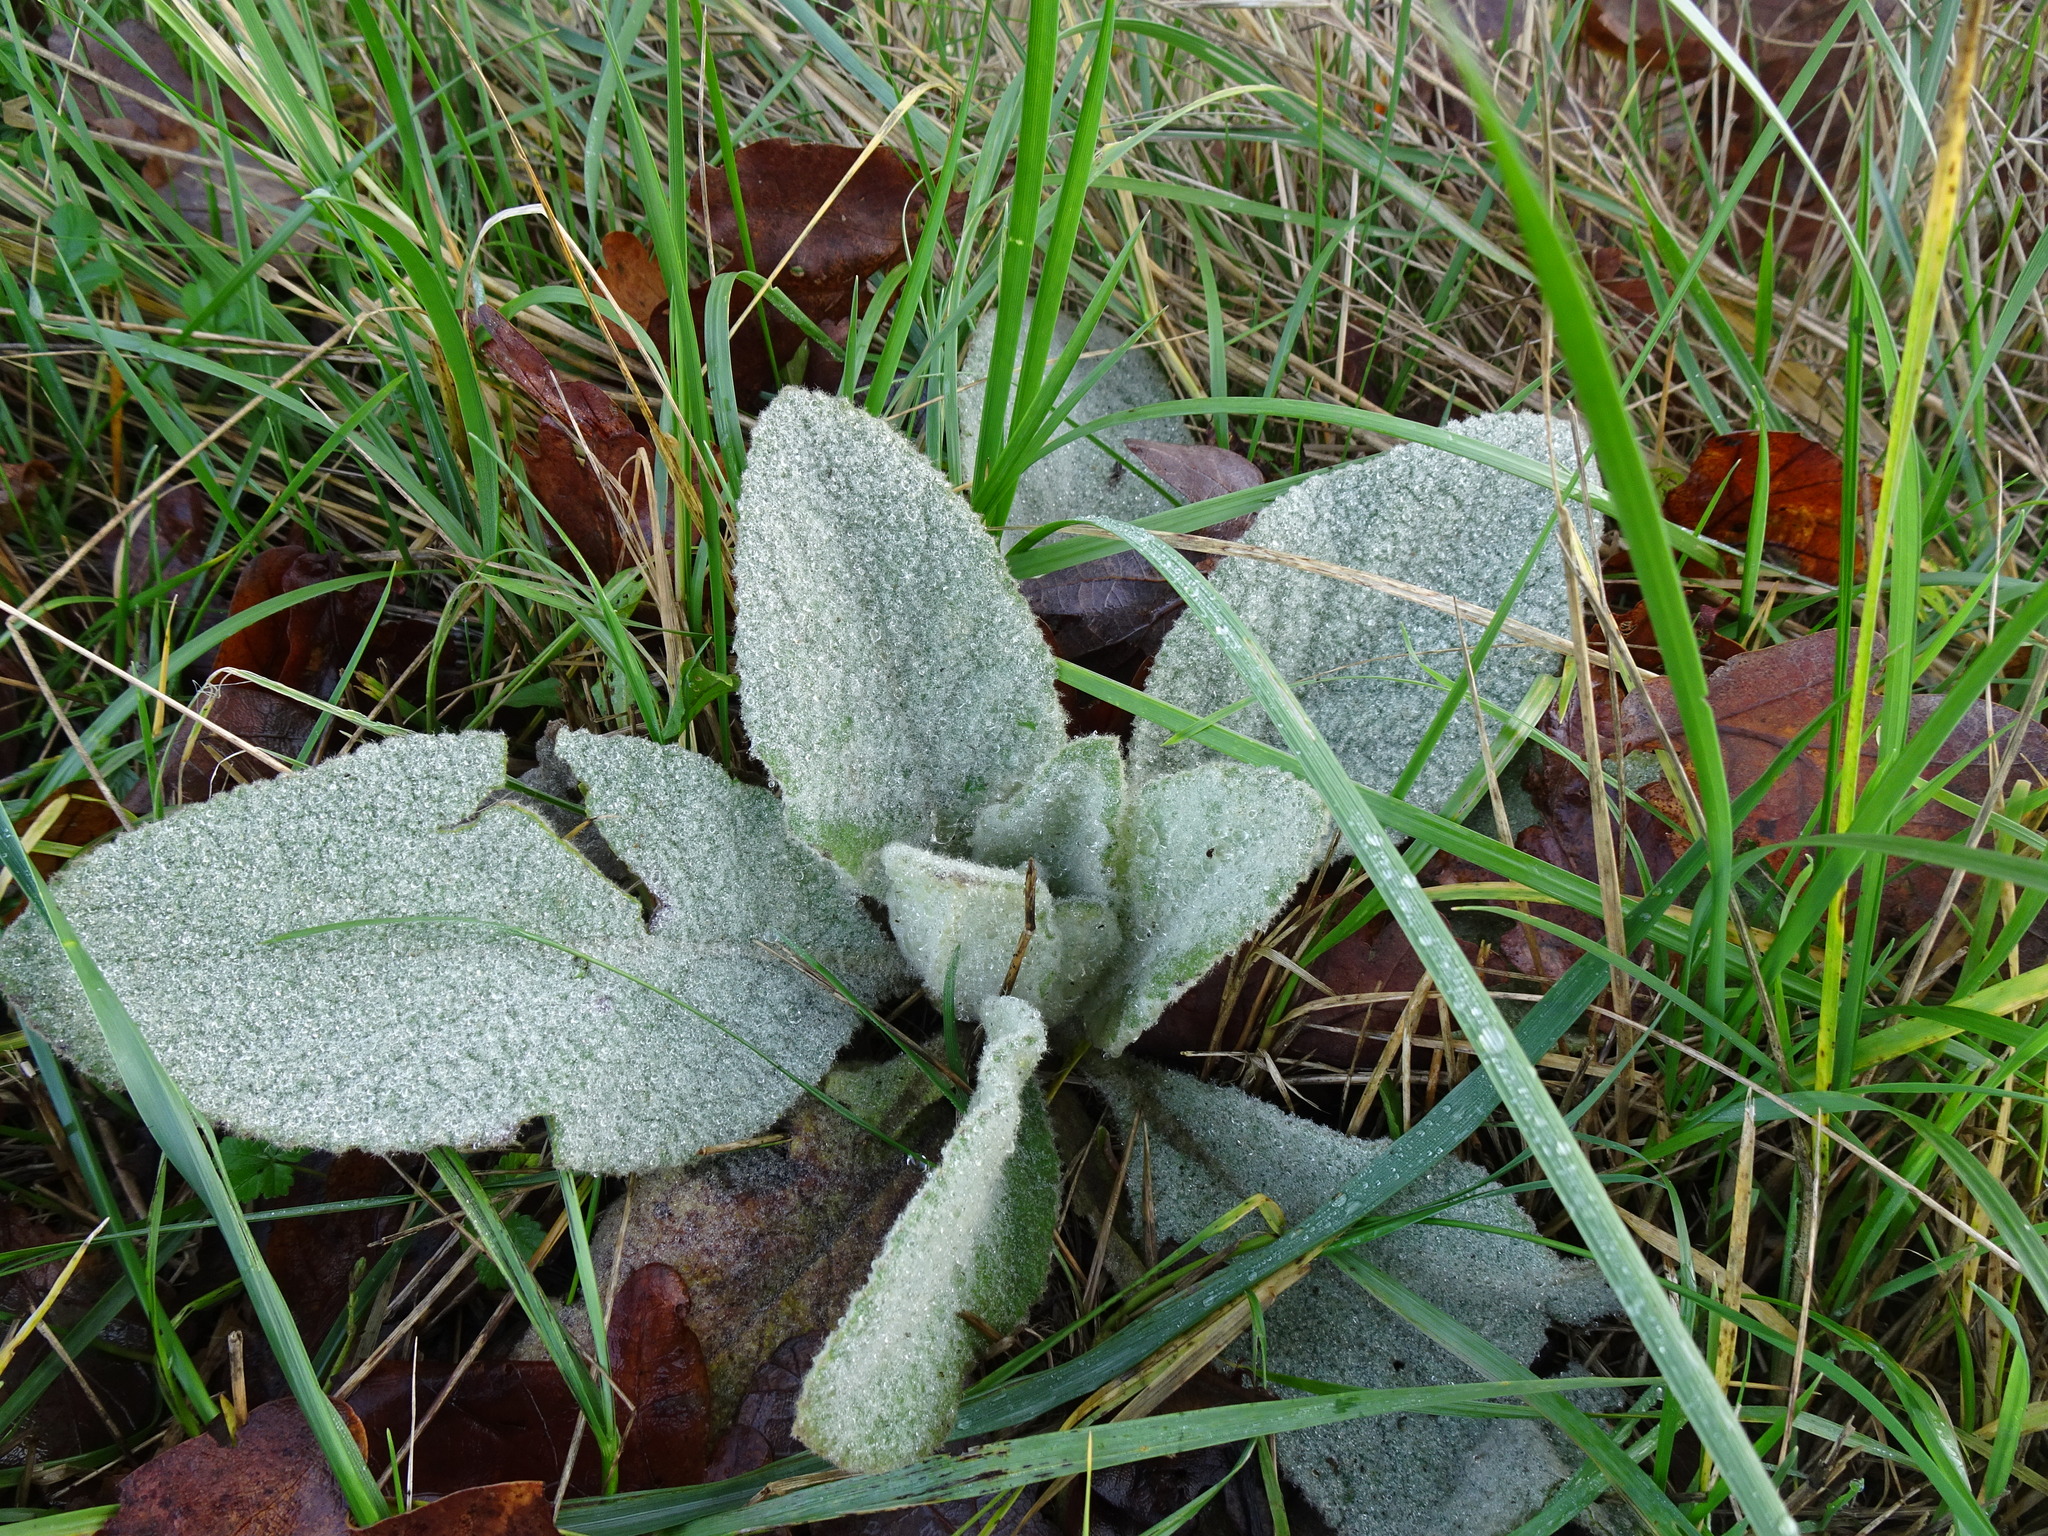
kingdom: Plantae
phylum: Tracheophyta
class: Magnoliopsida
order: Lamiales
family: Scrophulariaceae
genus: Verbascum
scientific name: Verbascum thapsus
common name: Common mullein
